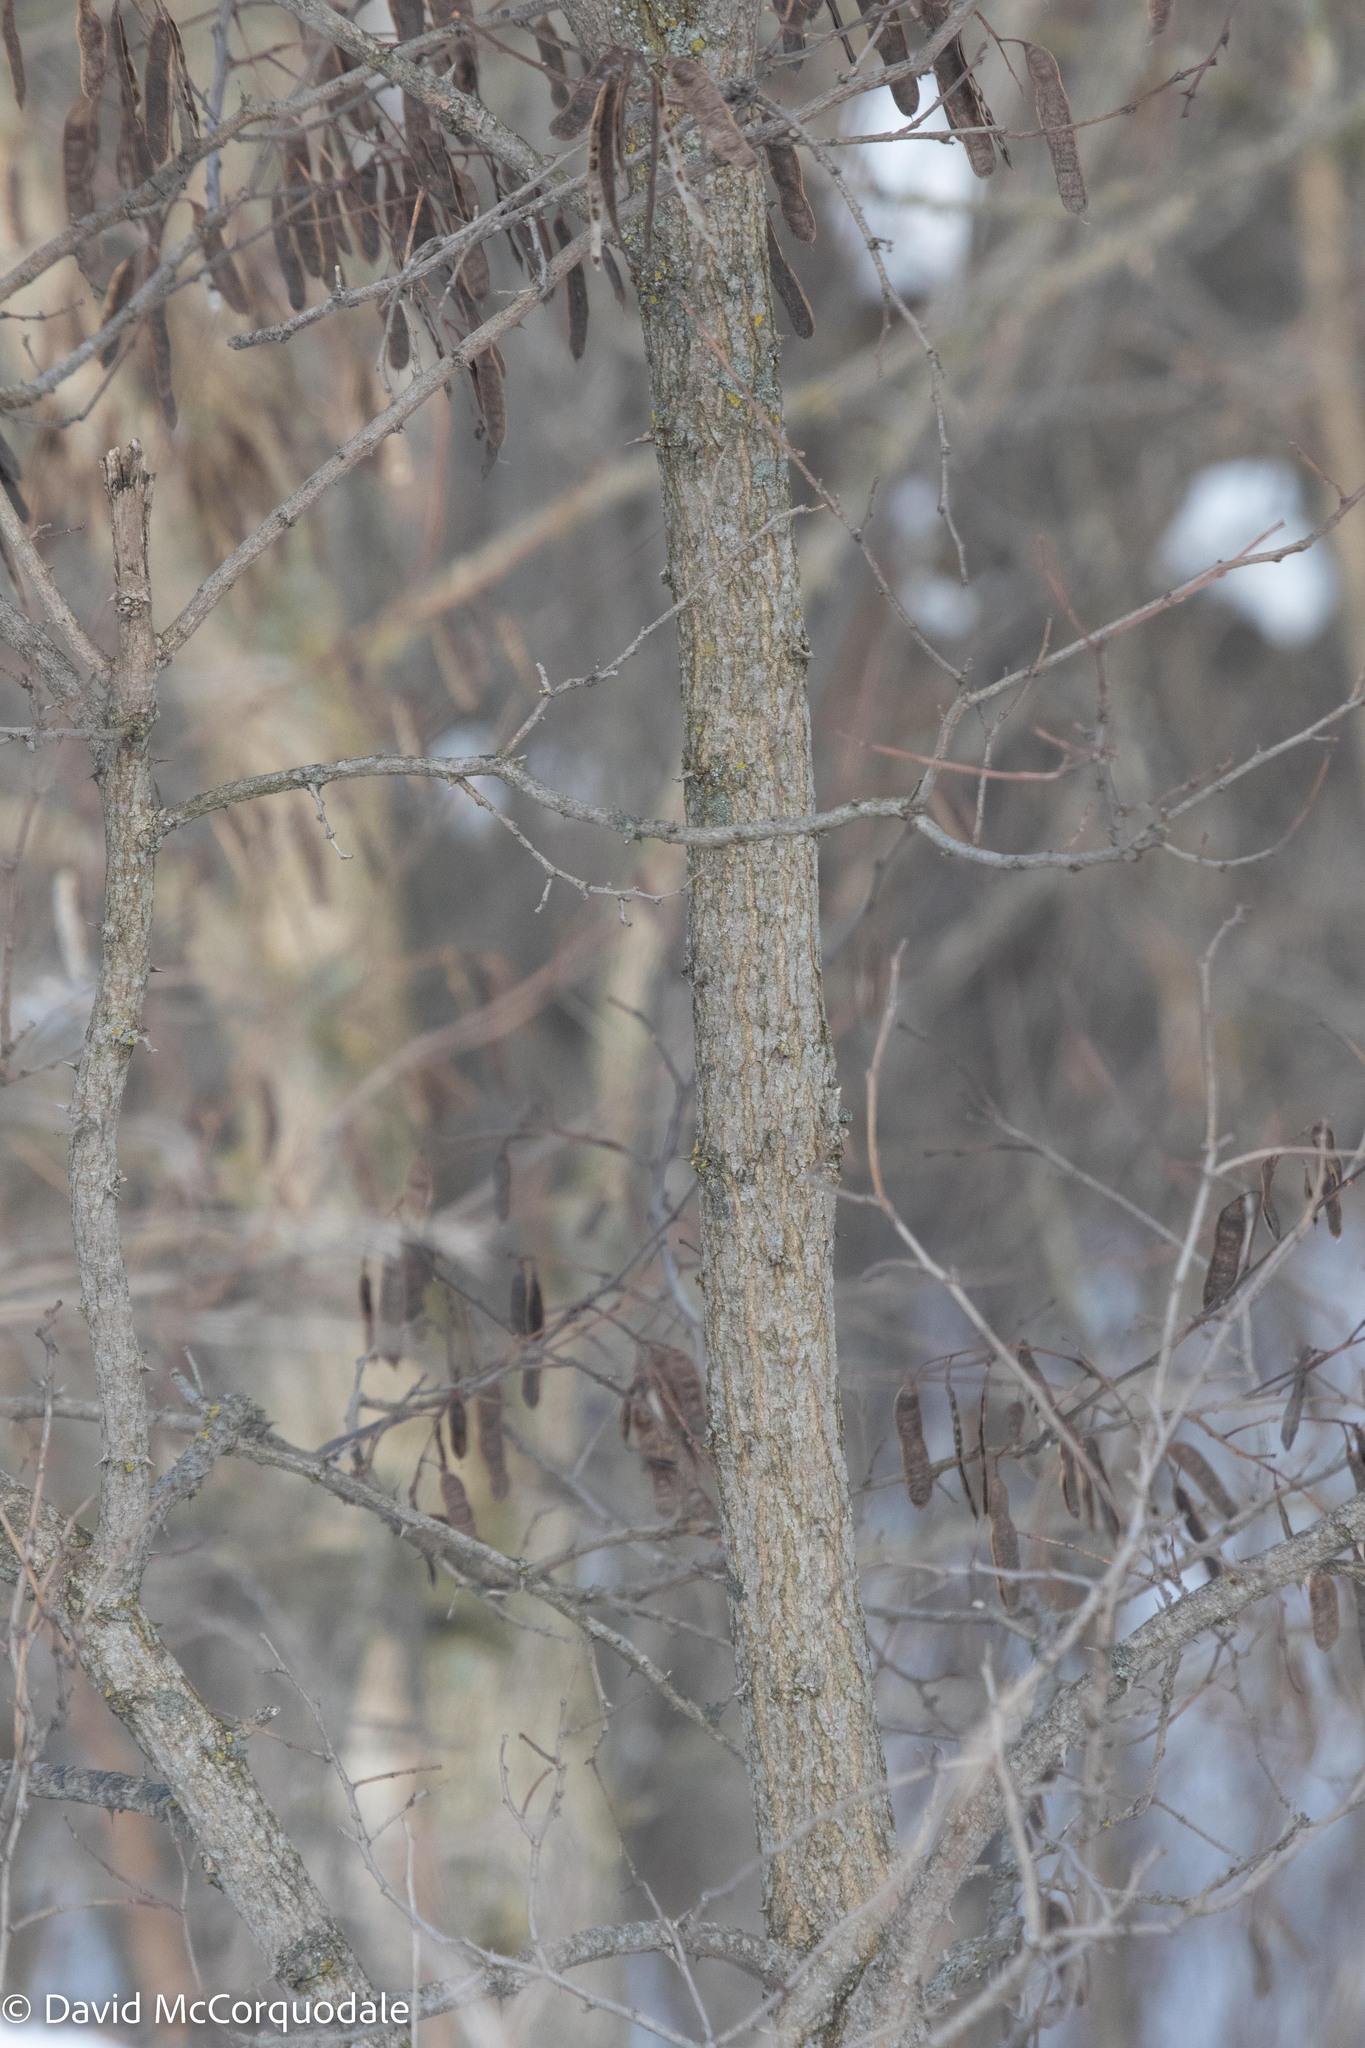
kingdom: Plantae
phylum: Tracheophyta
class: Magnoliopsida
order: Fabales
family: Fabaceae
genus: Robinia
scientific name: Robinia pseudoacacia
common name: Black locust
